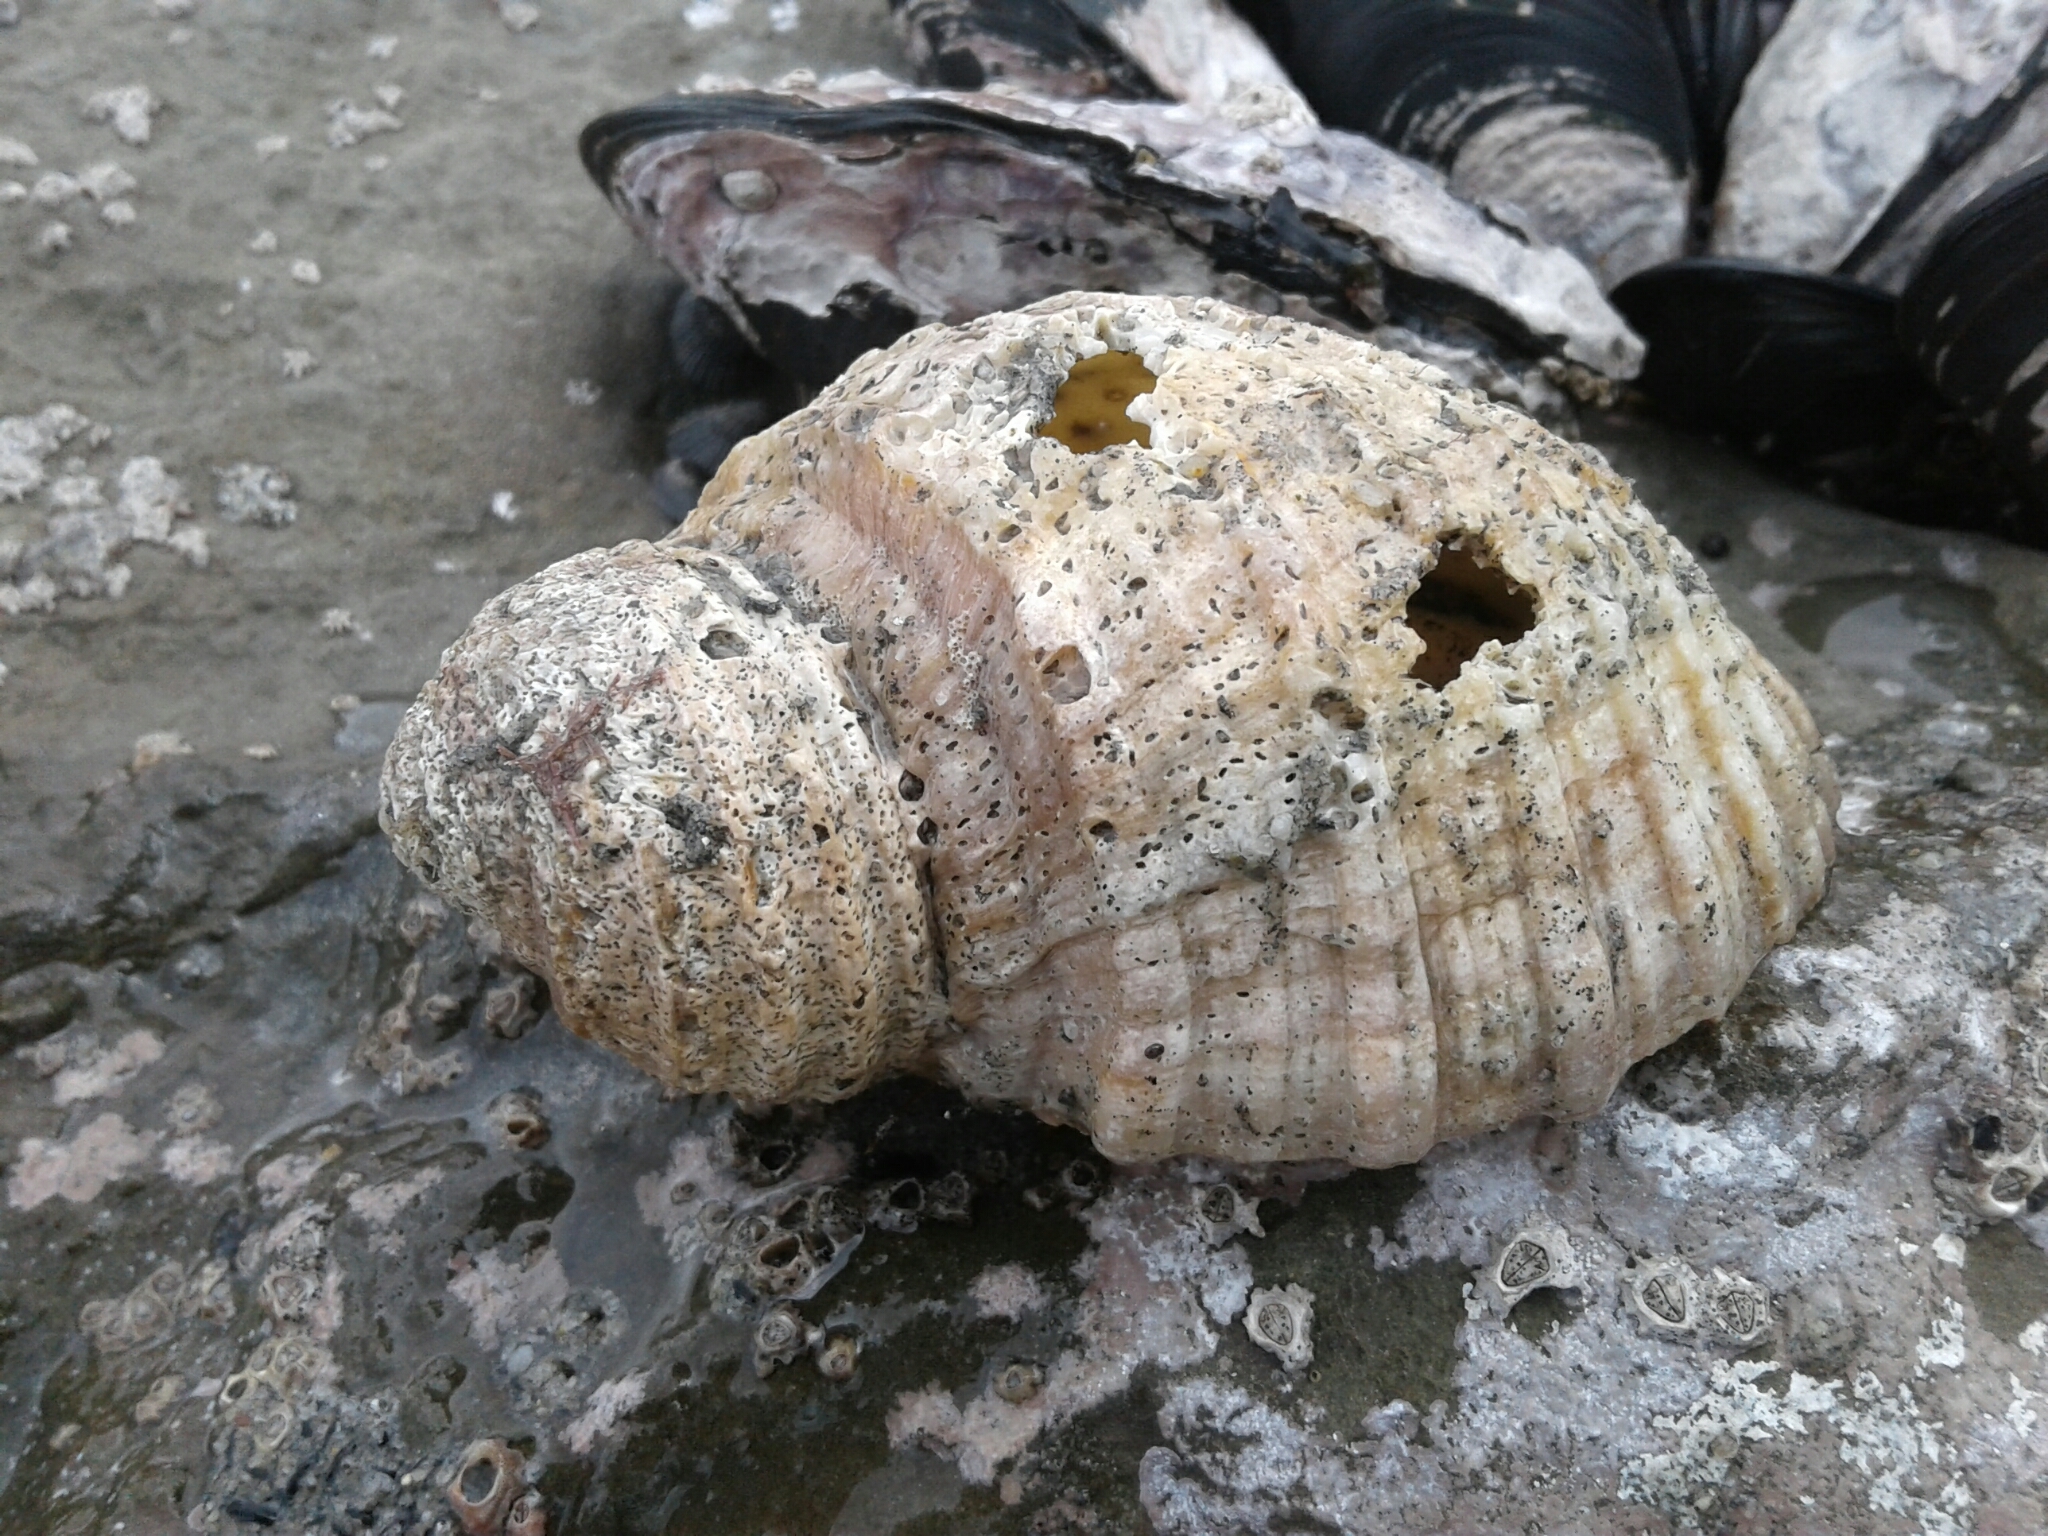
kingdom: Animalia
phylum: Mollusca
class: Gastropoda
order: Neogastropoda
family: Muricidae
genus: Dicathais
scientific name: Dicathais orbita
